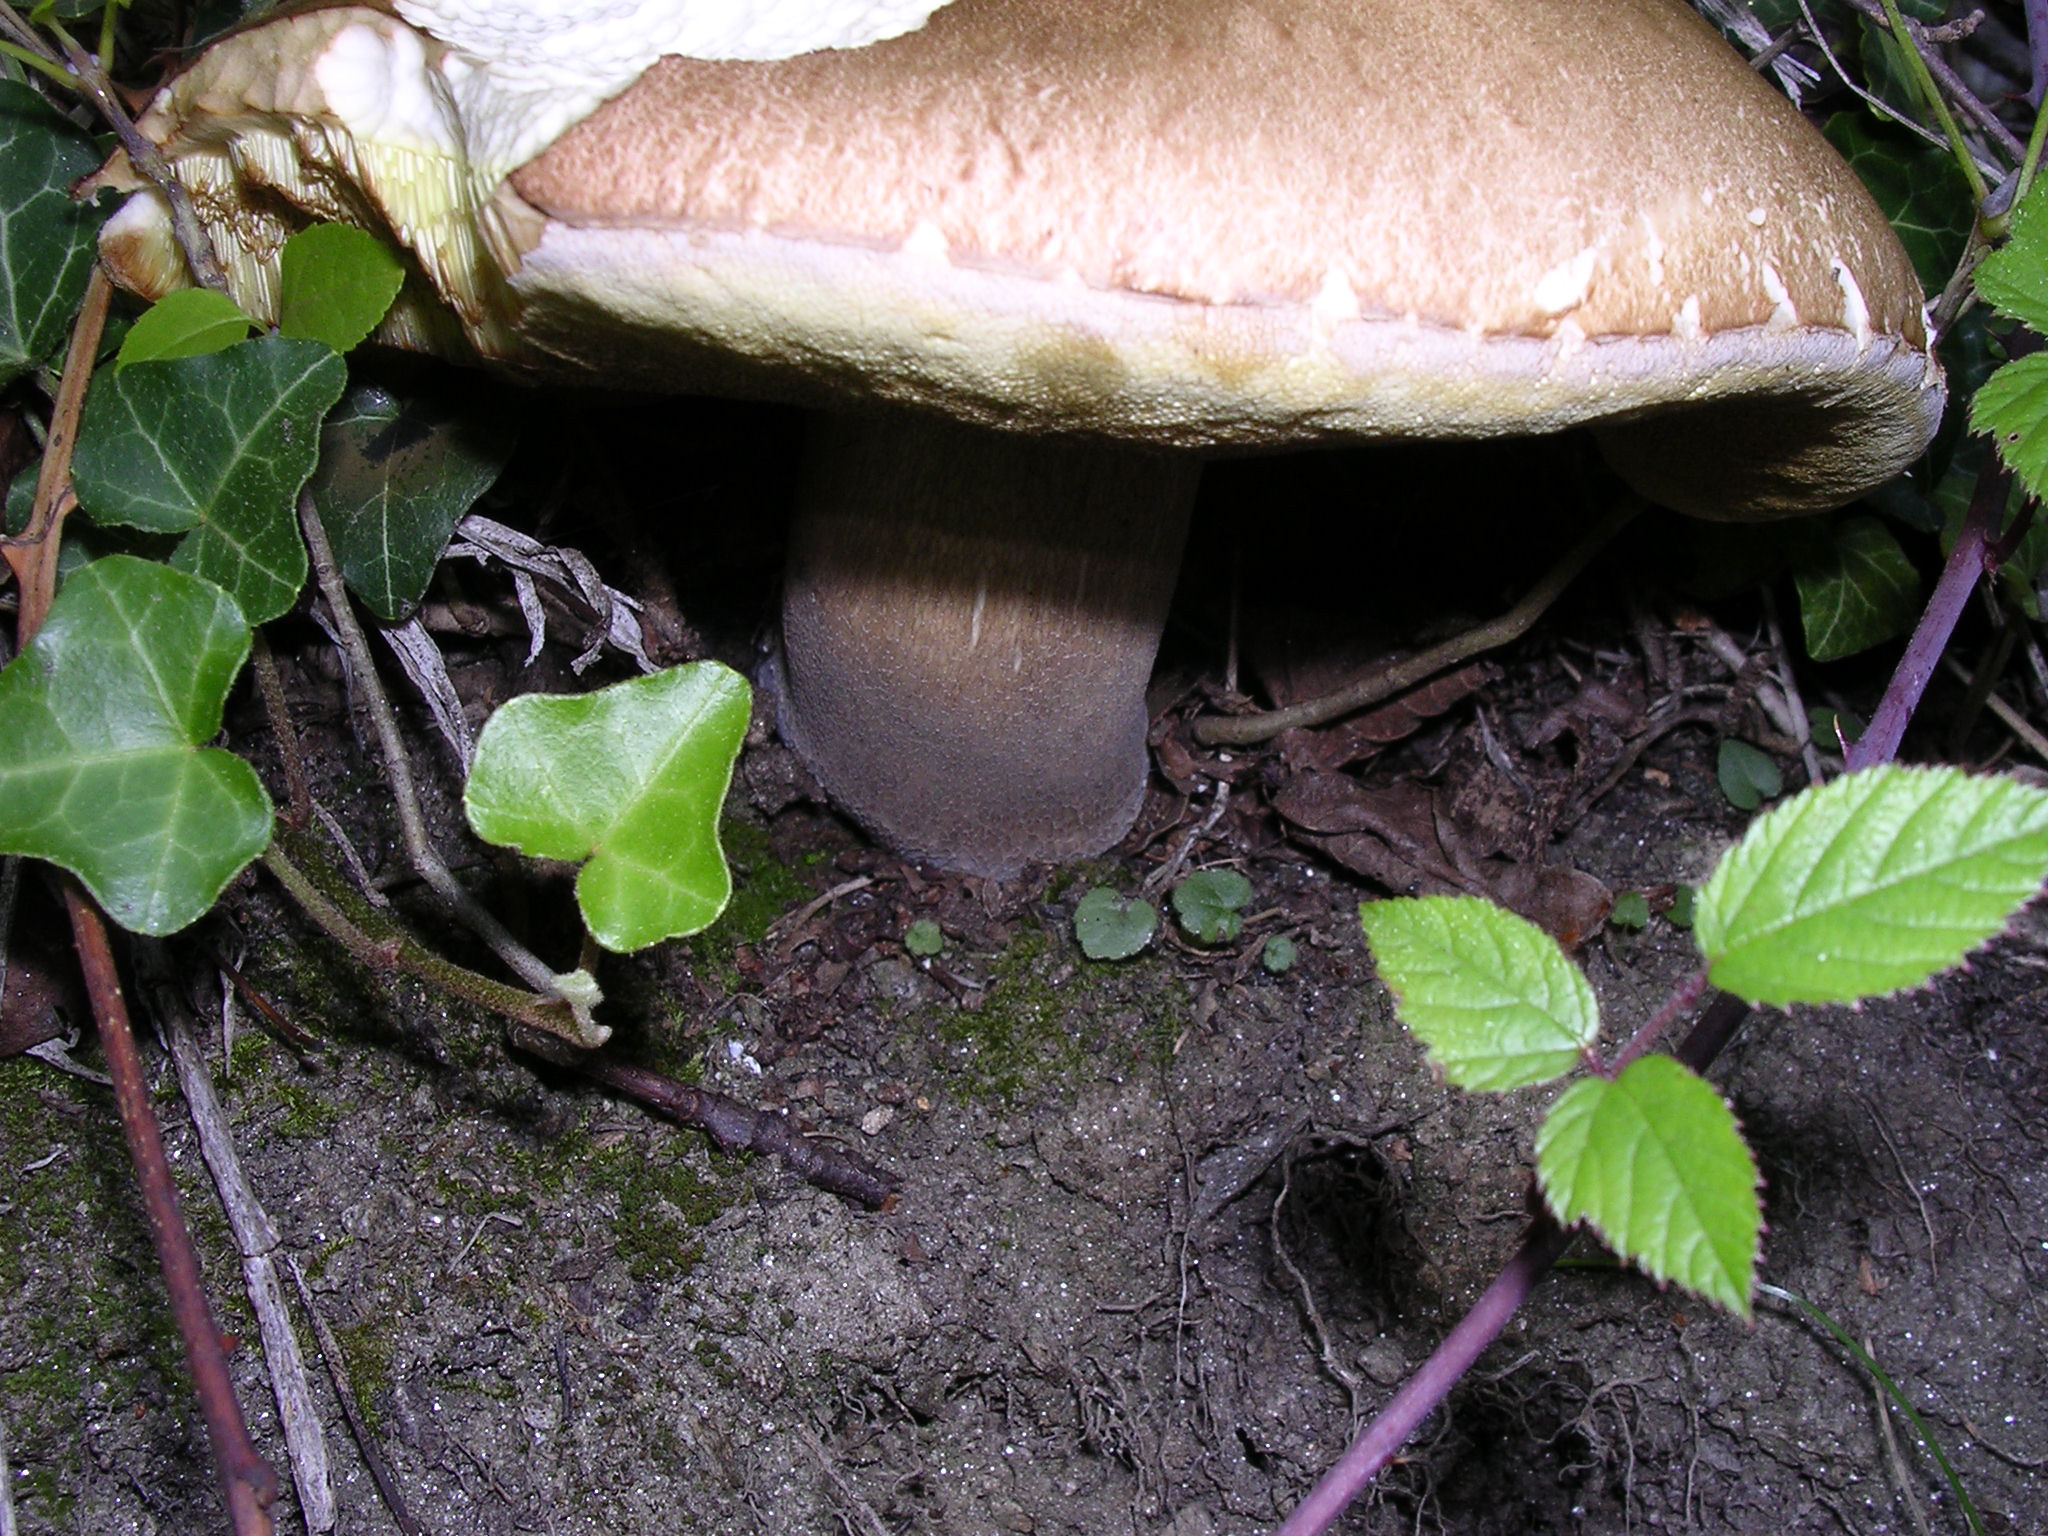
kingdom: Fungi
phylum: Basidiomycota
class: Agaricomycetes
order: Boletales
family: Boletaceae
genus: Boletus
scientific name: Boletus reticulatus
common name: Summer bolete
